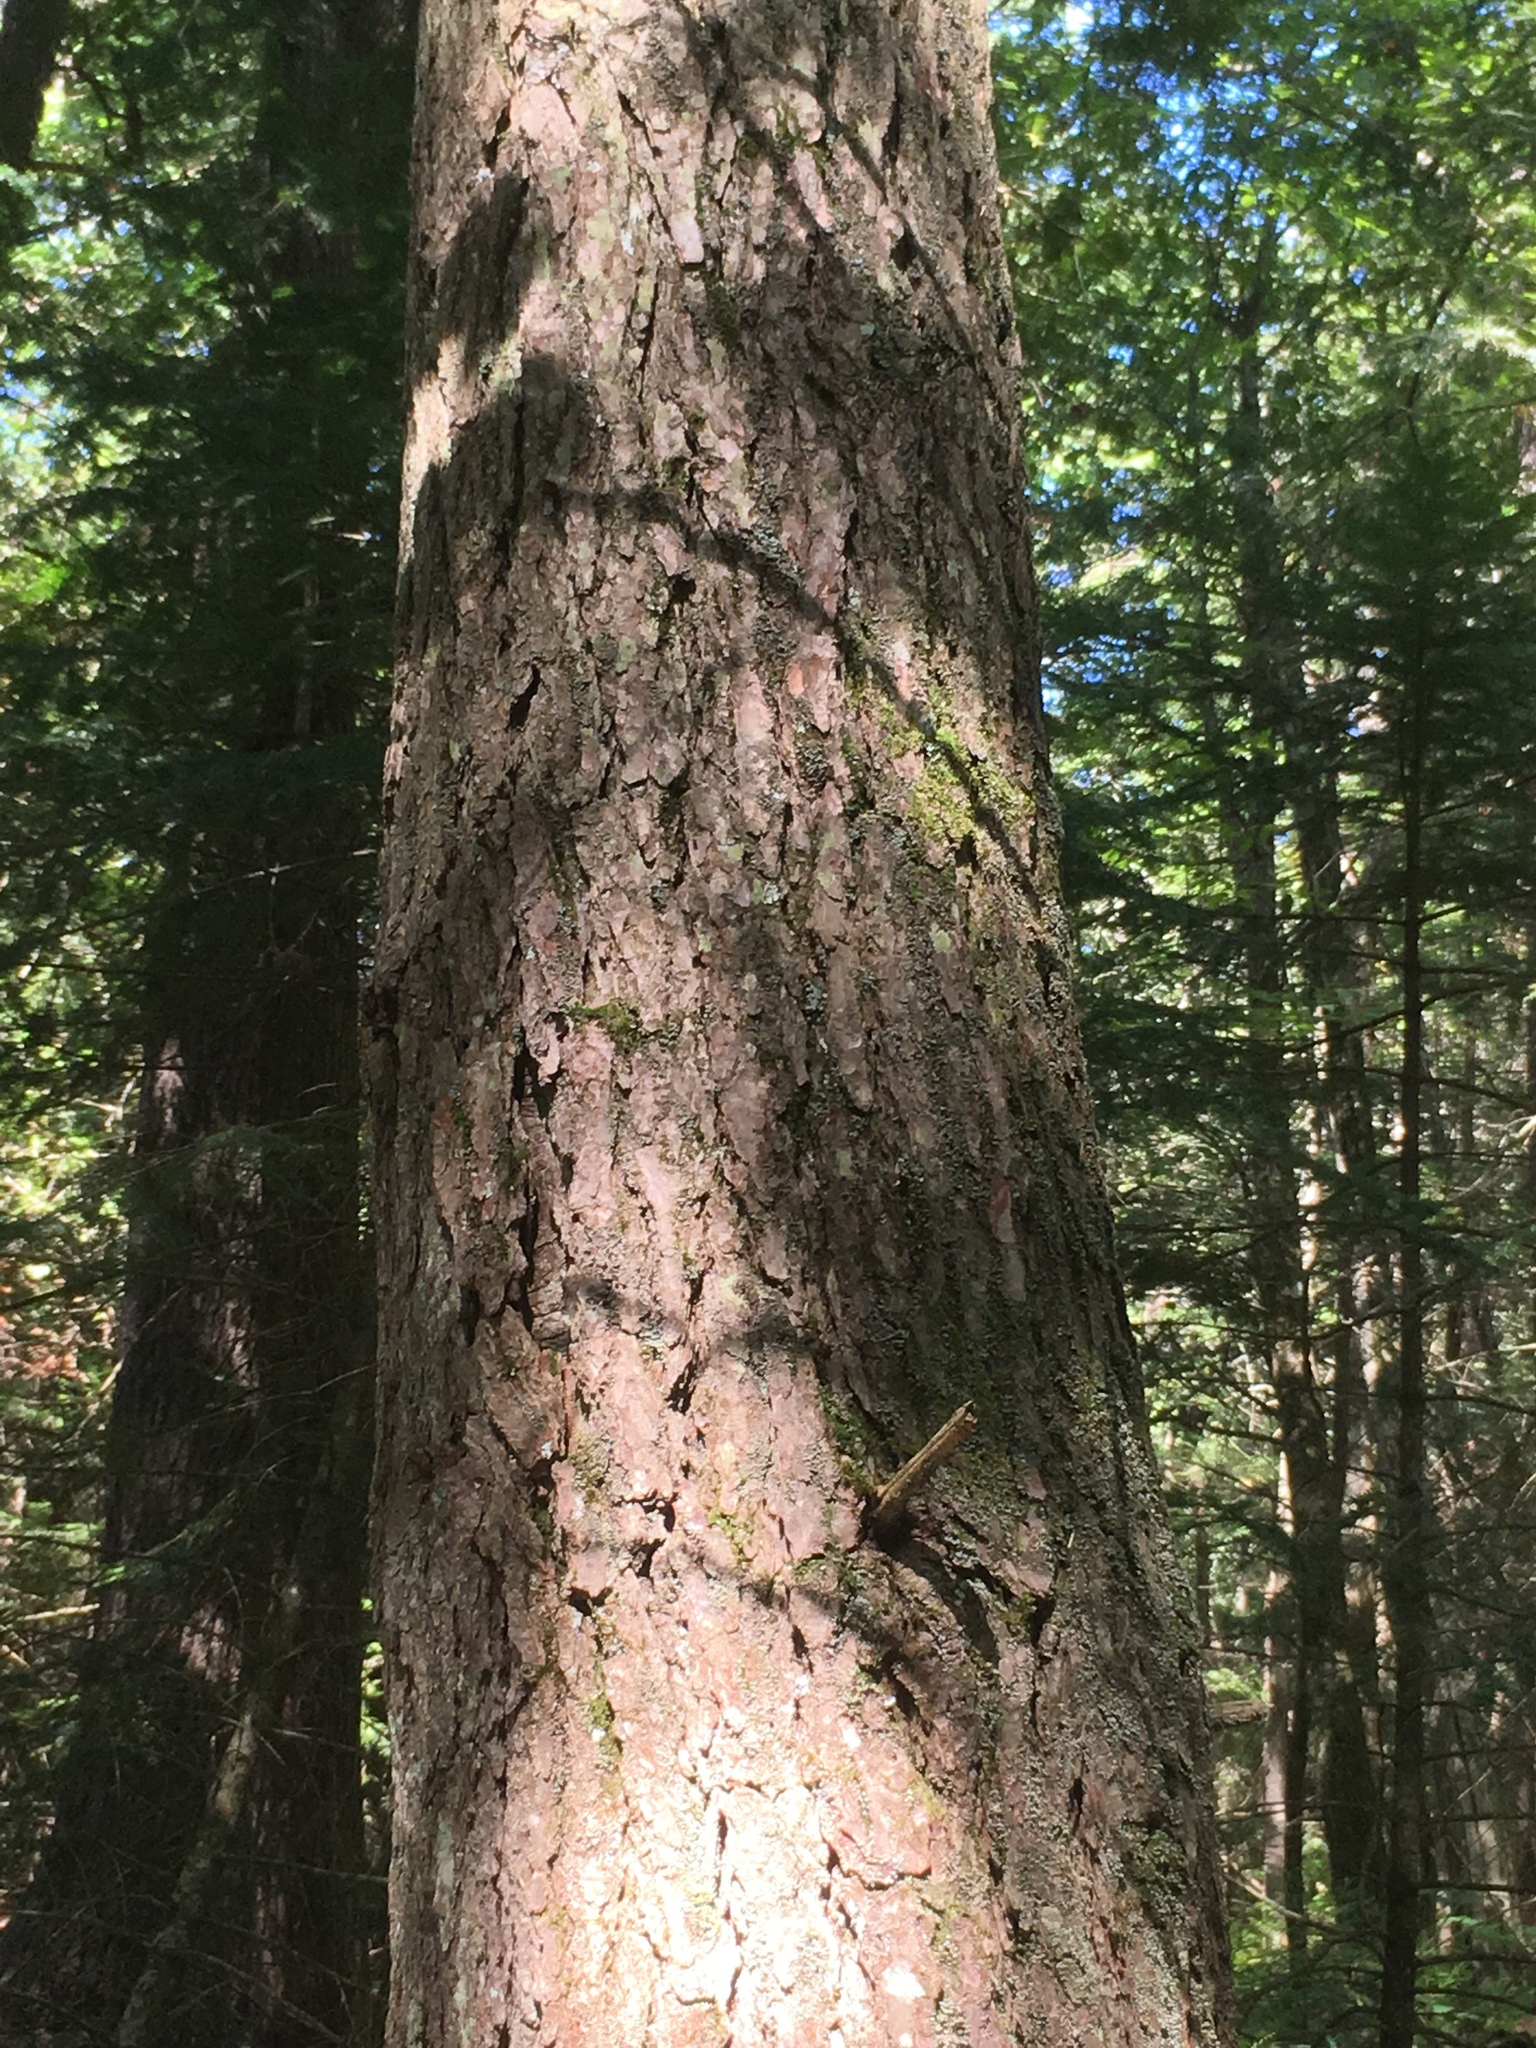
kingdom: Plantae
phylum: Tracheophyta
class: Pinopsida
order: Pinales
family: Pinaceae
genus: Tsuga
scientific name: Tsuga canadensis
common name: Eastern hemlock
